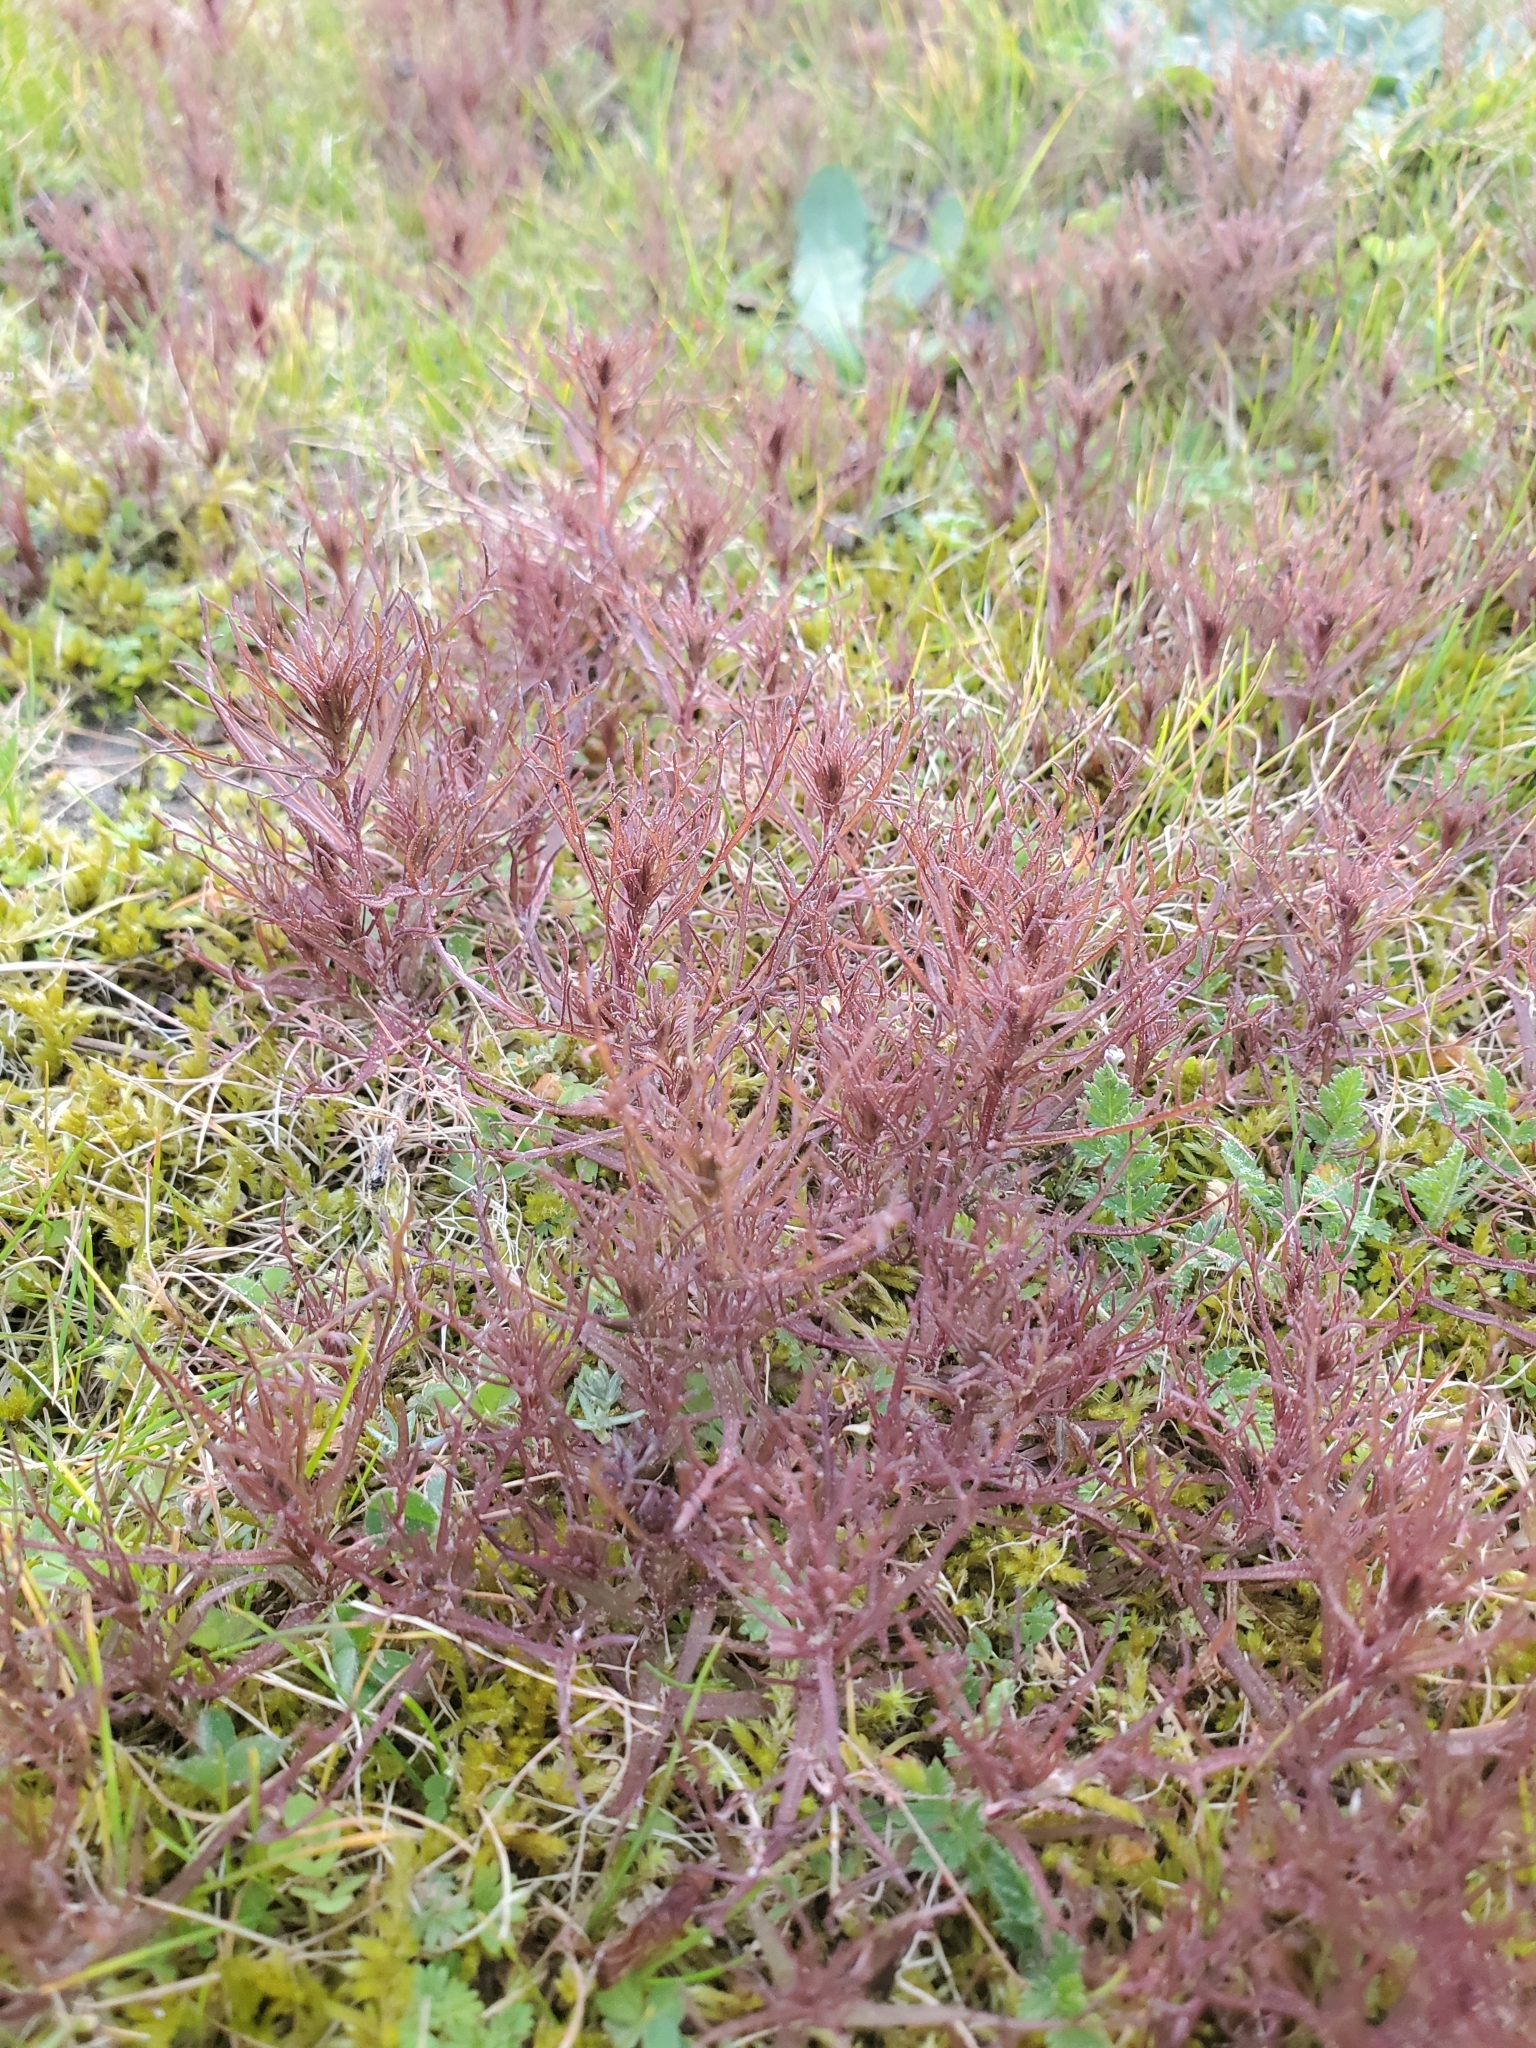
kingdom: Plantae
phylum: Tracheophyta
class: Magnoliopsida
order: Lamiales
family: Orobanchaceae
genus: Triphysaria
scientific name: Triphysaria pusilla
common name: Dwarf false owl-clover
